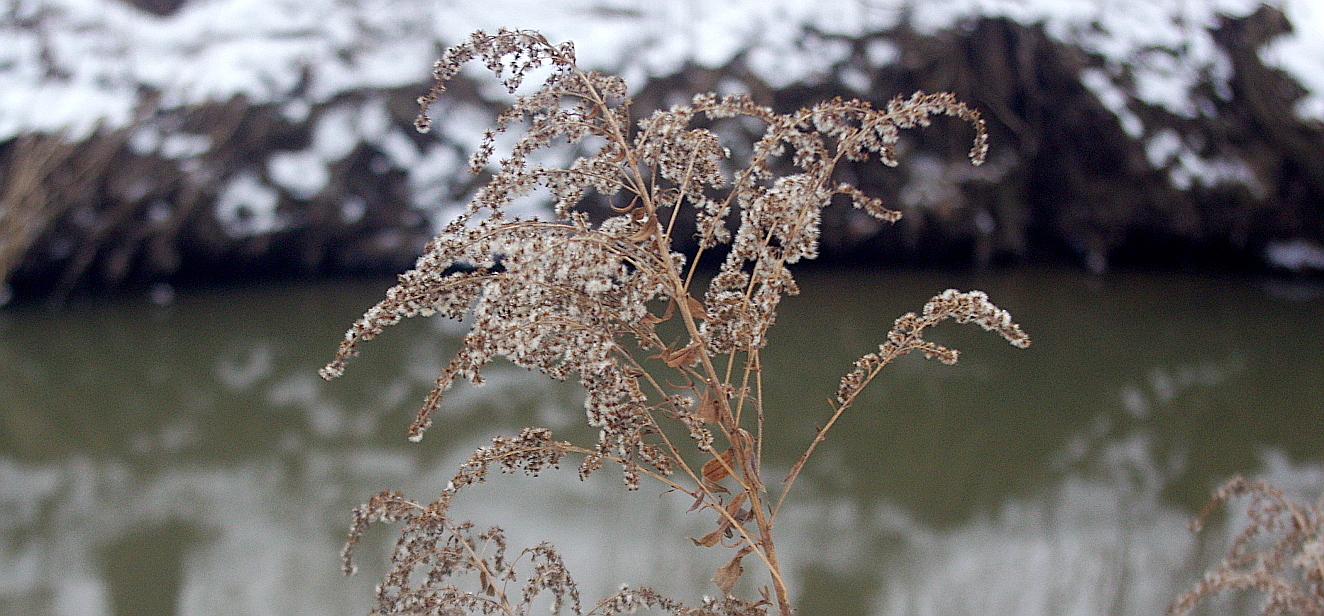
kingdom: Plantae
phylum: Tracheophyta
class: Magnoliopsida
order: Asterales
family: Asteraceae
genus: Solidago
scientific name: Solidago gigantea
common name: Giant goldenrod
